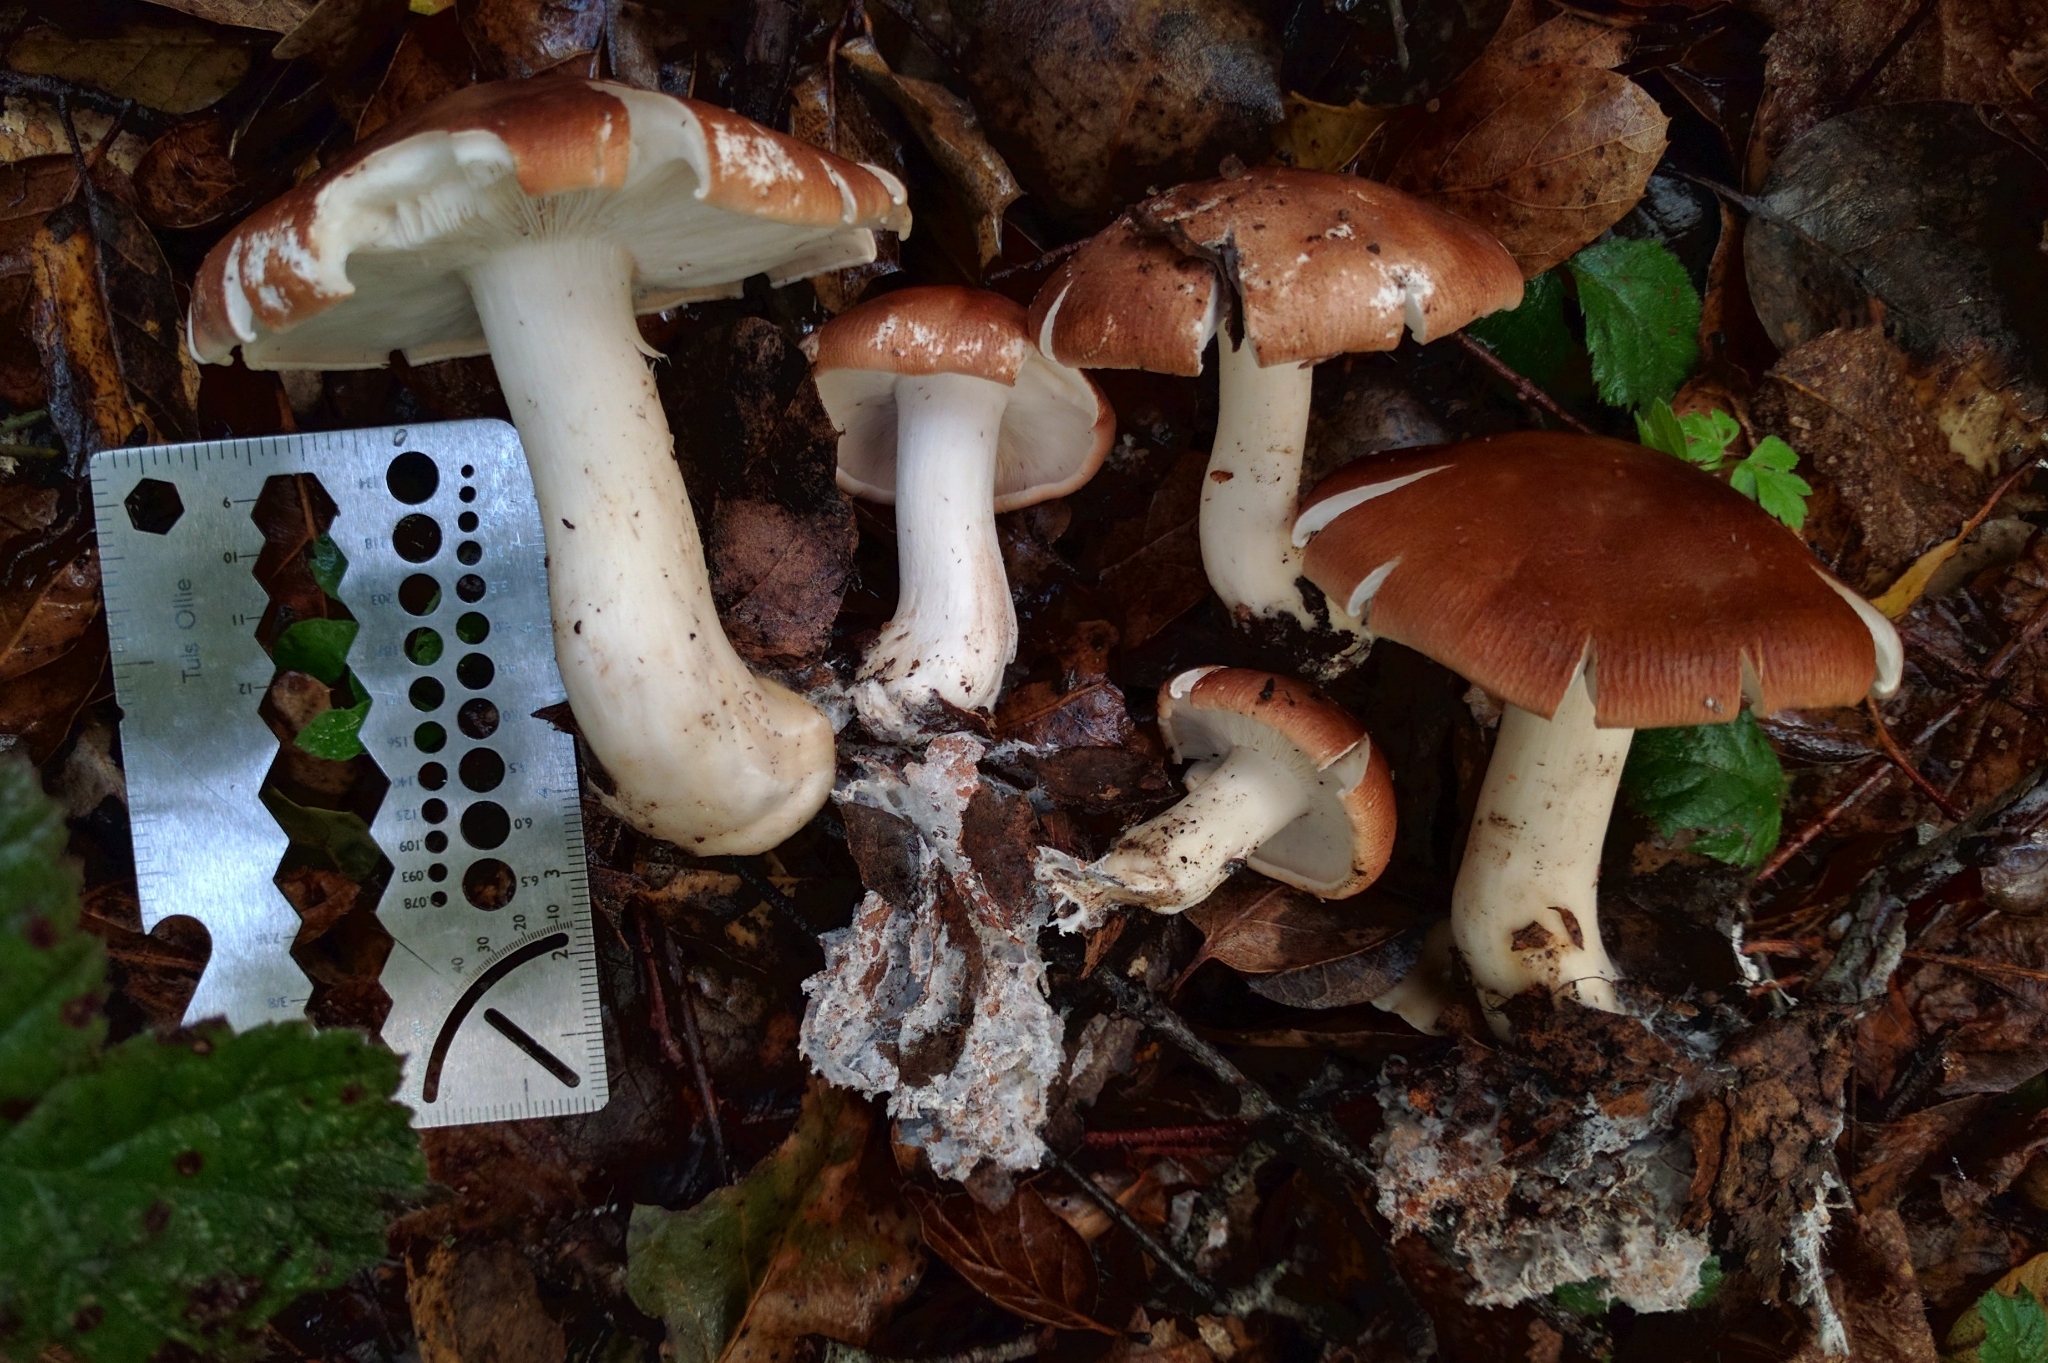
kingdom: Fungi
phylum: Basidiomycota
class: Agaricomycetes
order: Agaricales
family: Tricholomataceae
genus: Leucopaxillus
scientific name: Leucopaxillus gentianeus
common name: Bitter funnel
